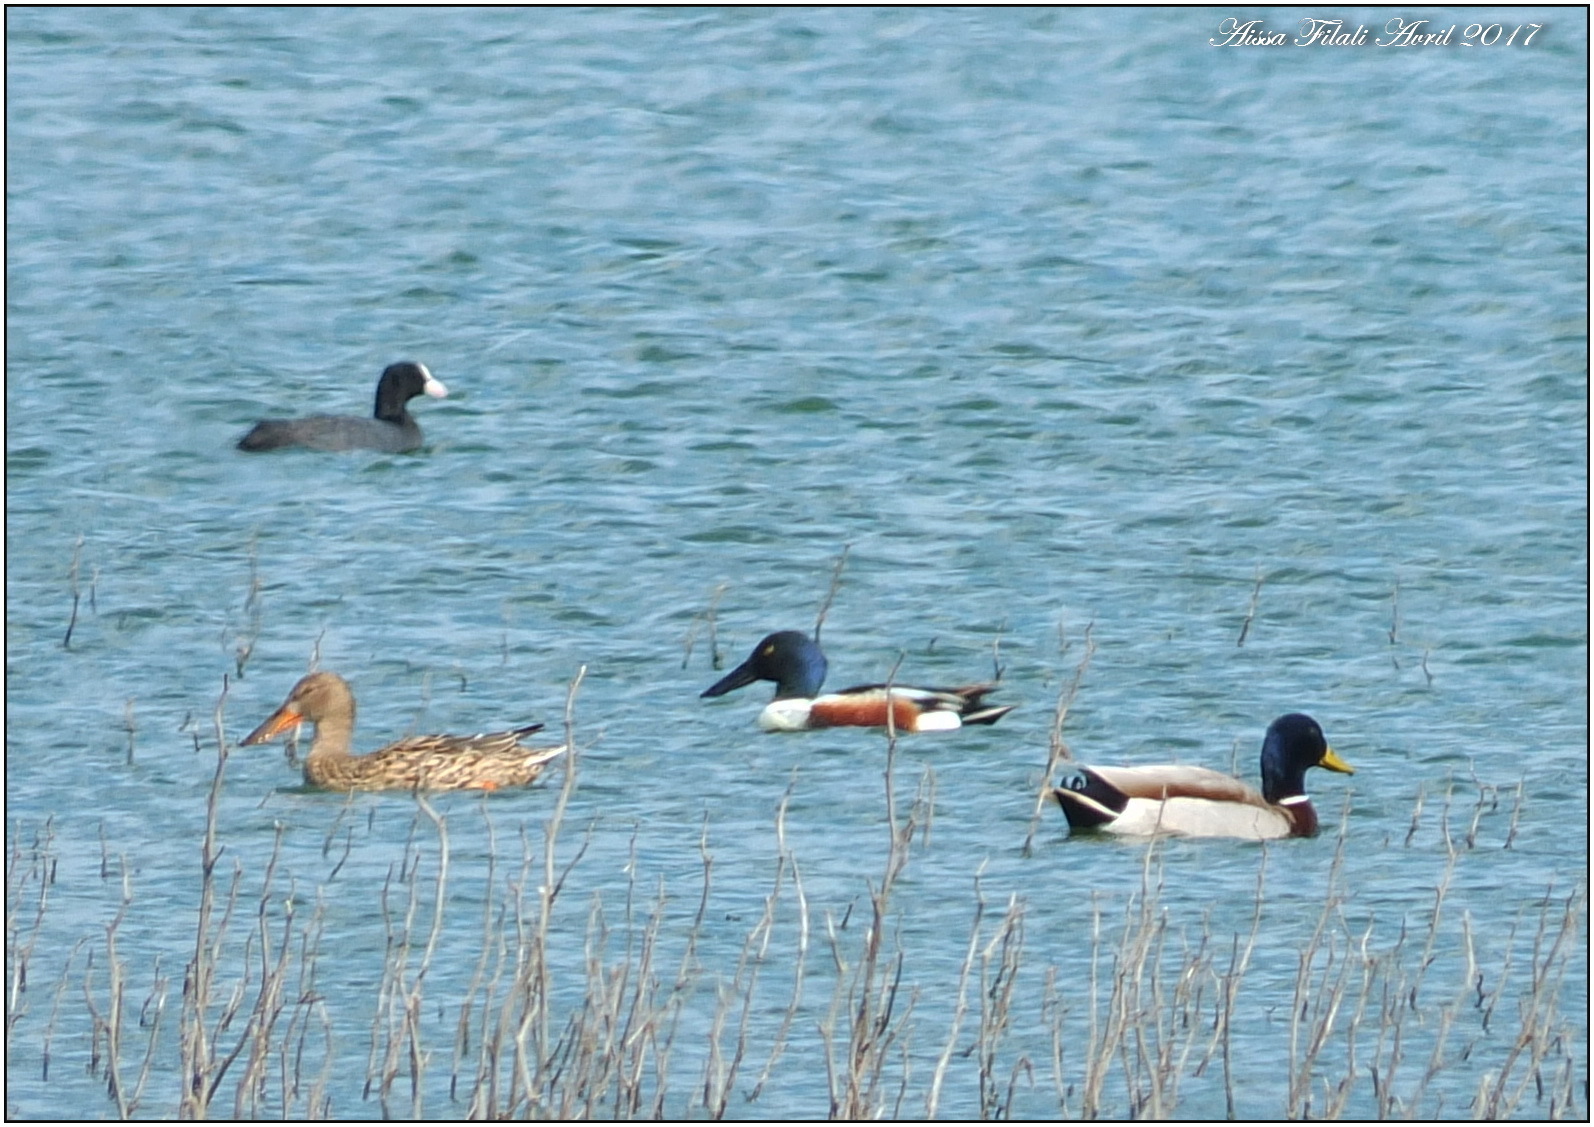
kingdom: Animalia
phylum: Chordata
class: Aves
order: Anseriformes
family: Anatidae
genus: Spatula
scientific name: Spatula clypeata
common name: Northern shoveler
